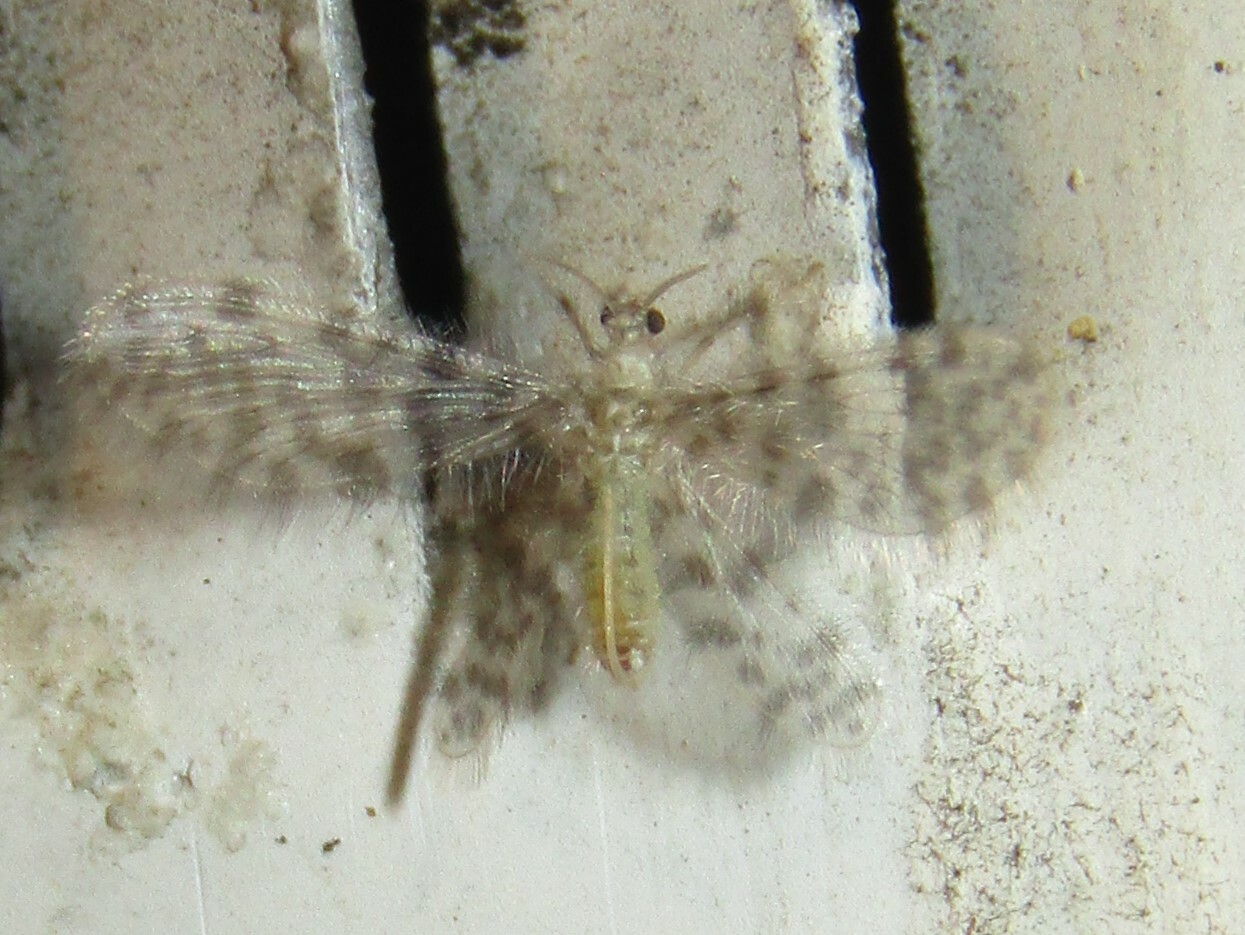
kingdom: Animalia
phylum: Arthropoda
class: Insecta
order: Neuroptera
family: Dilaridae
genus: Nallachius
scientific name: Nallachius americanus
